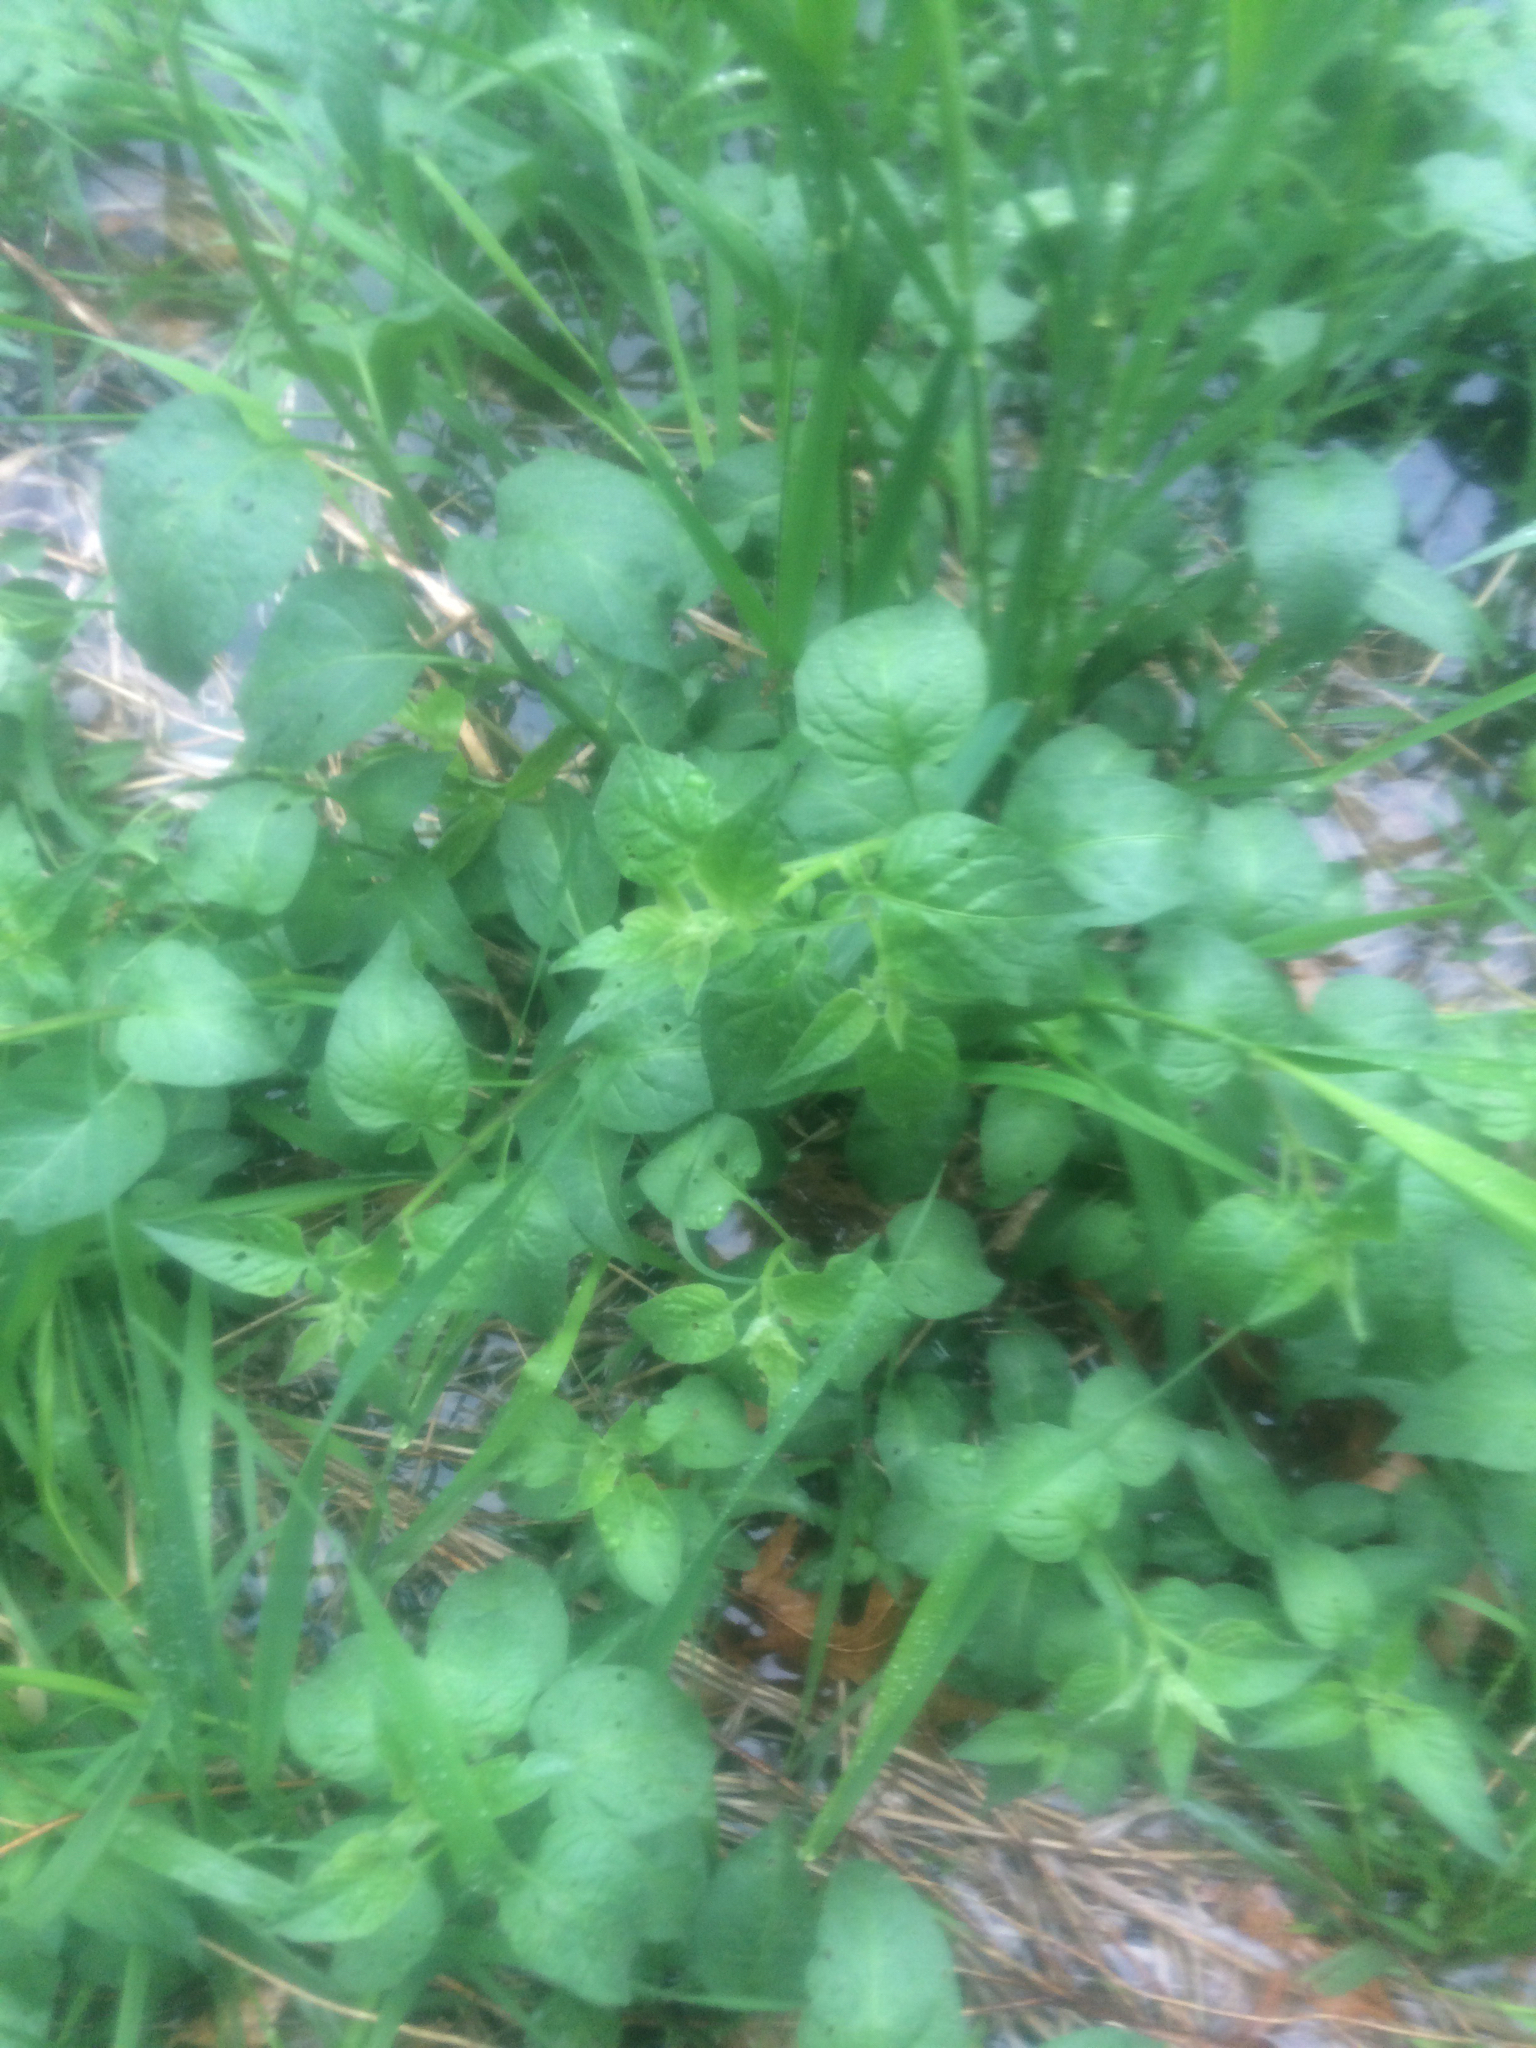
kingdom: Plantae
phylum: Tracheophyta
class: Magnoliopsida
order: Solanales
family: Solanaceae
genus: Solanum
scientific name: Solanum dulcamara
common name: Climbing nightshade
